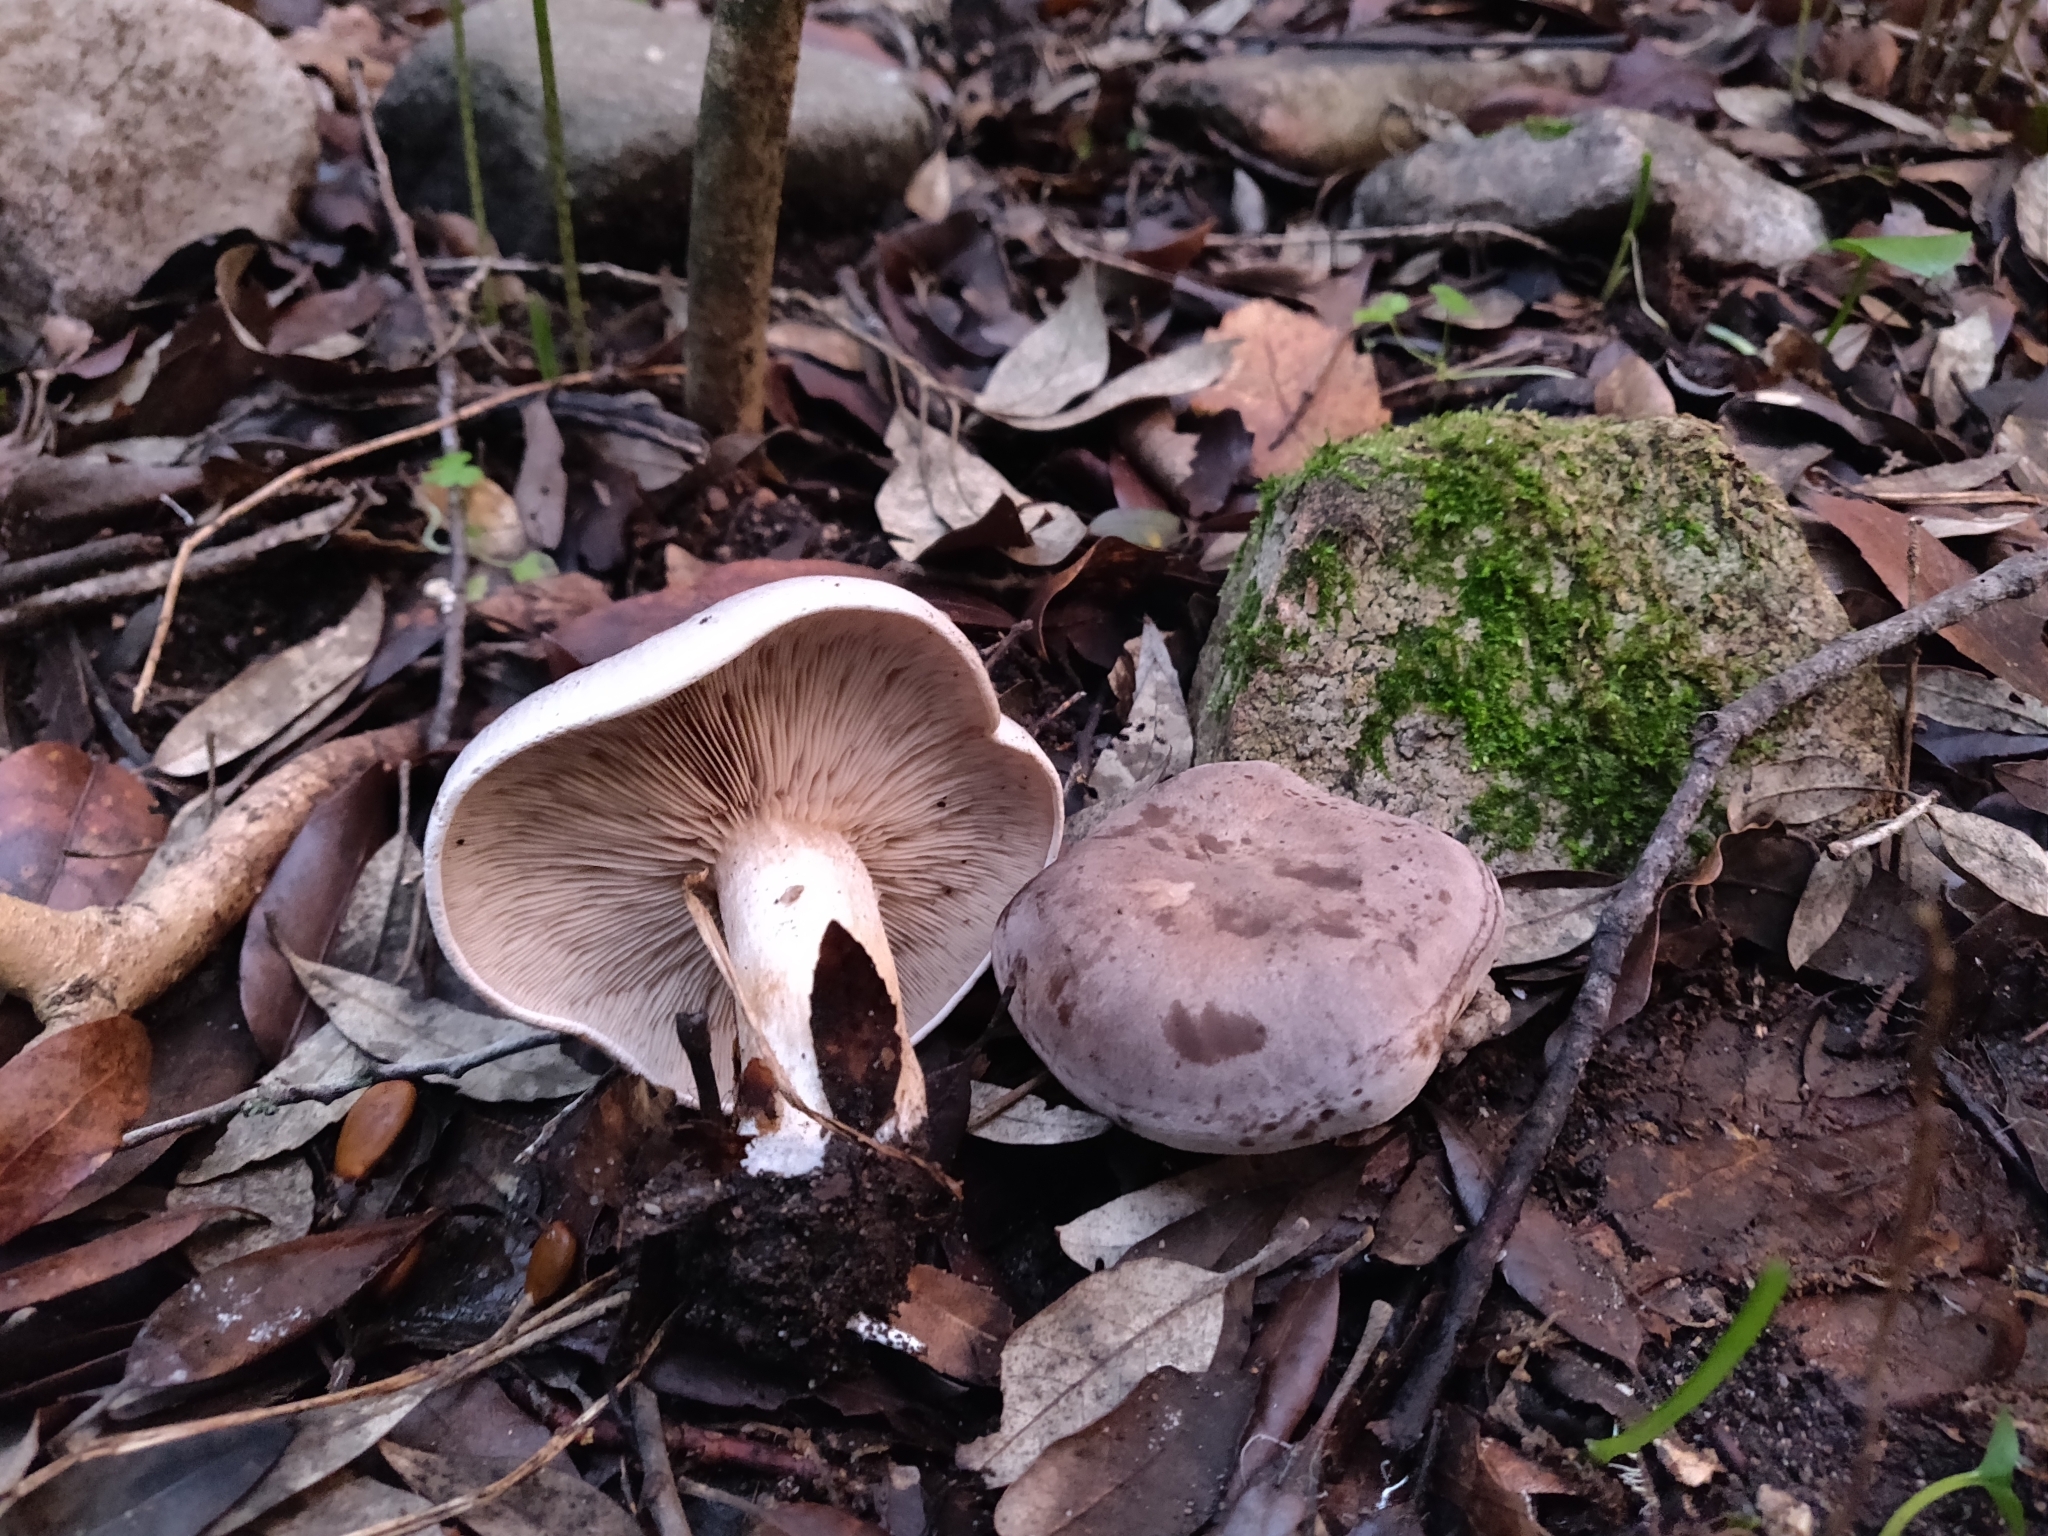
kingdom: Fungi
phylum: Basidiomycota
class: Agaricomycetes
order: Agaricales
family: Tricholomataceae
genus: Lepista
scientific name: Lepista luscina
